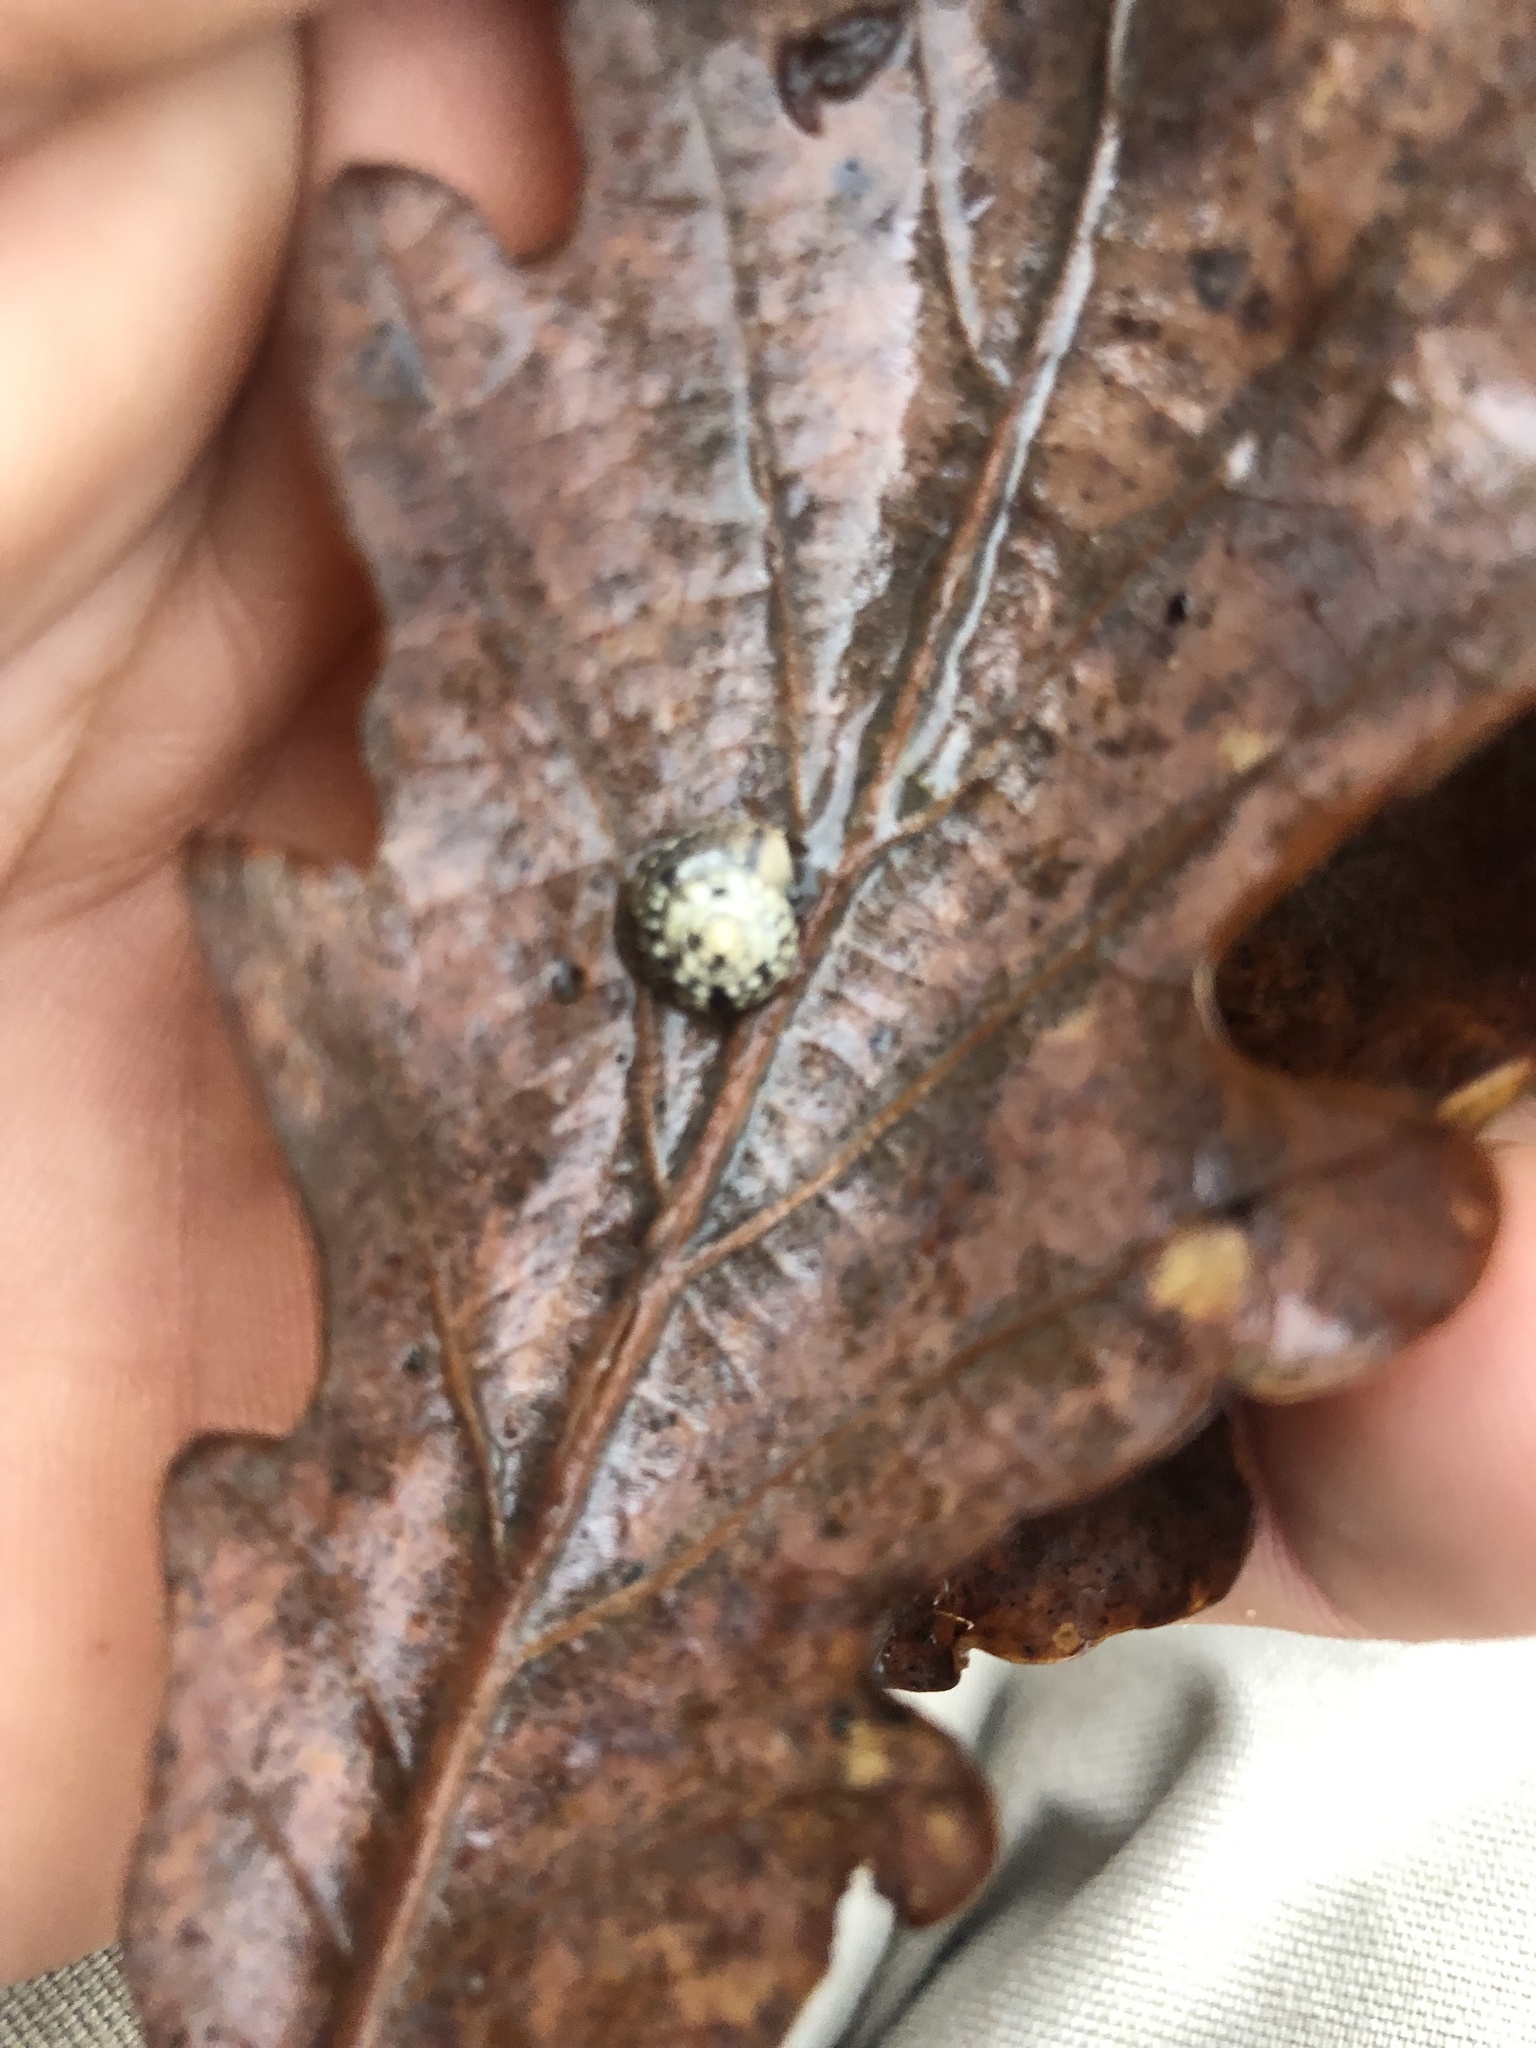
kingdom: Animalia
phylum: Mollusca
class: Gastropoda
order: Stylommatophora
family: Hygromiidae
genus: Hygromia
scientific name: Hygromia cinctella
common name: Girdled snail
